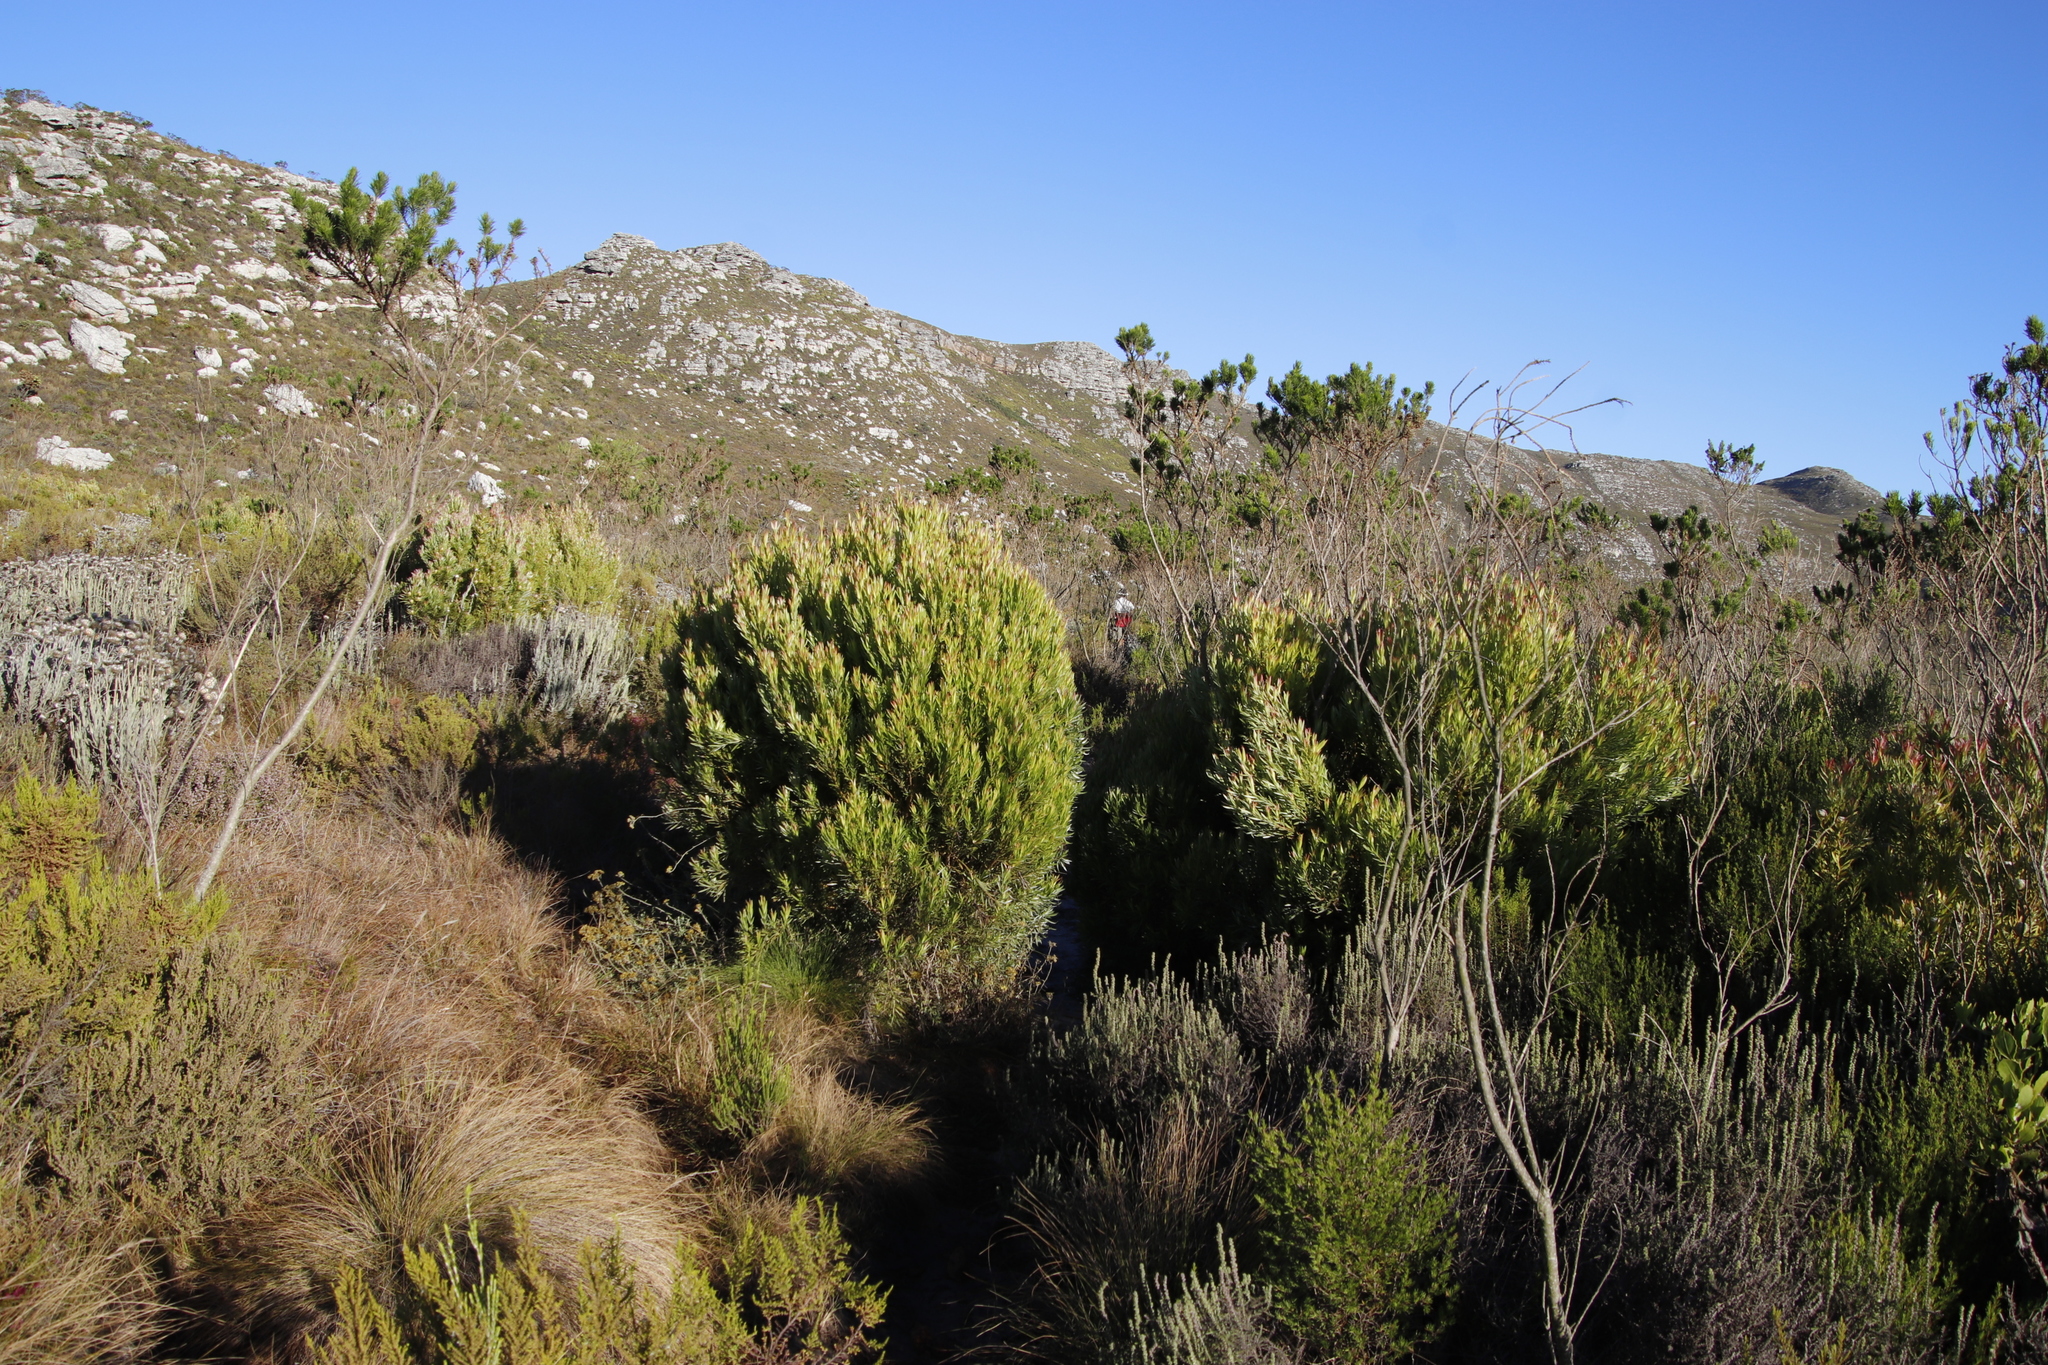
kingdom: Plantae
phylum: Tracheophyta
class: Magnoliopsida
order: Proteales
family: Proteaceae
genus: Leucadendron
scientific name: Leucadendron xanthoconus
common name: Sickle-leaf conebush
